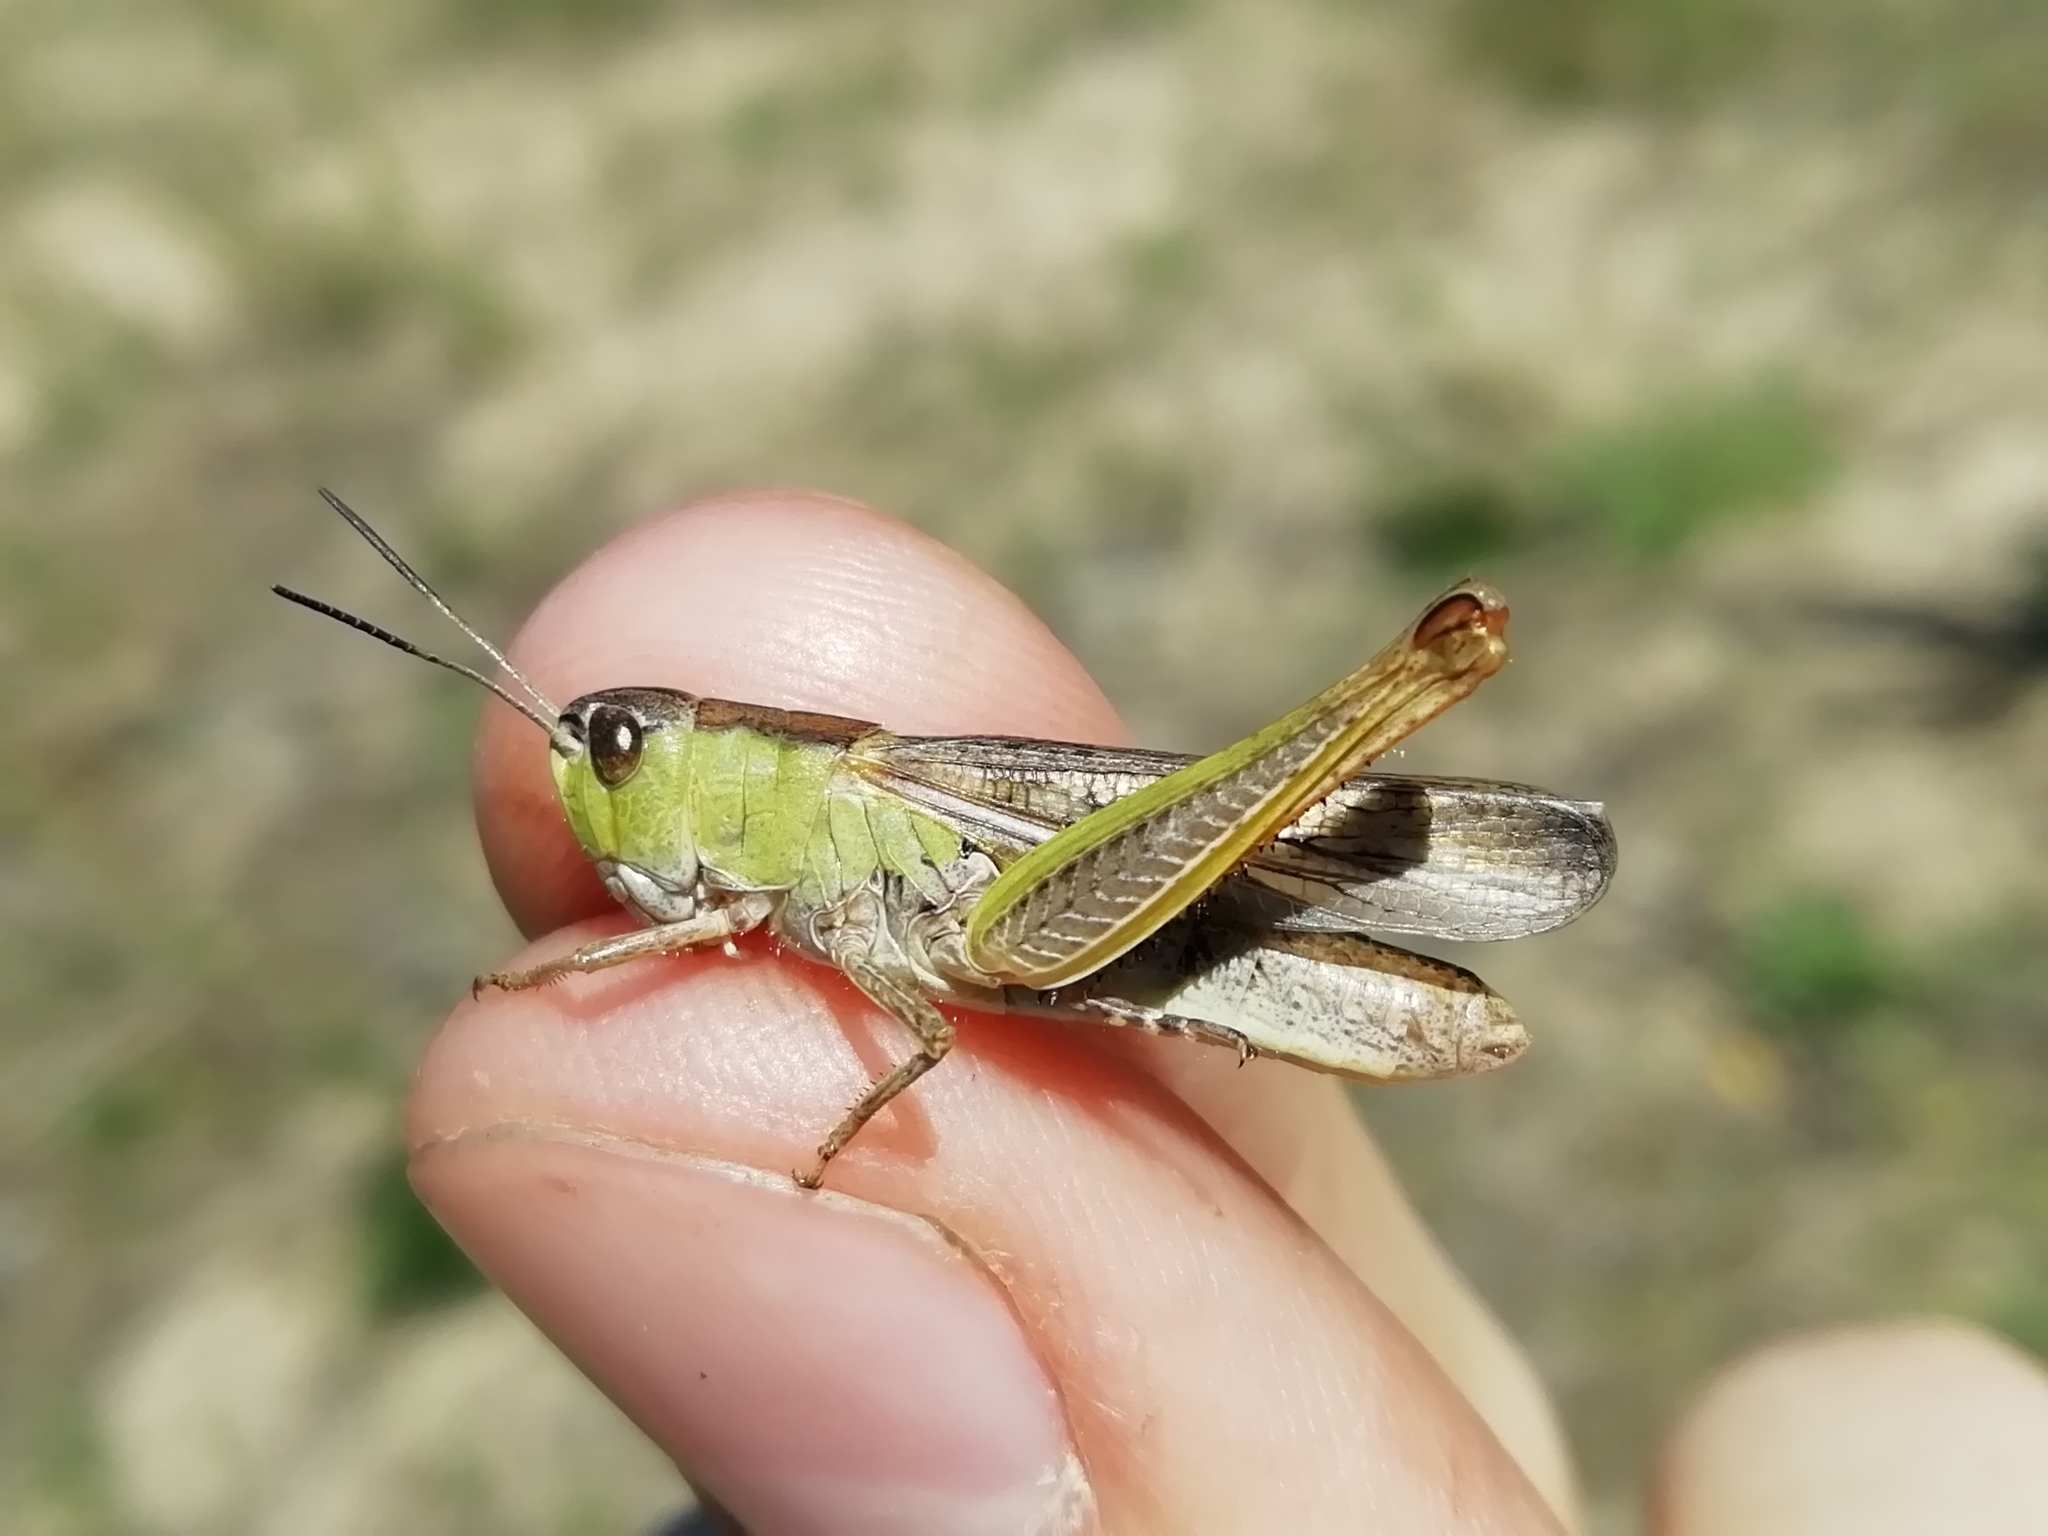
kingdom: Animalia
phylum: Arthropoda
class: Insecta
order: Orthoptera
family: Acrididae
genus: Stauroderus
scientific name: Stauroderus scalaris
